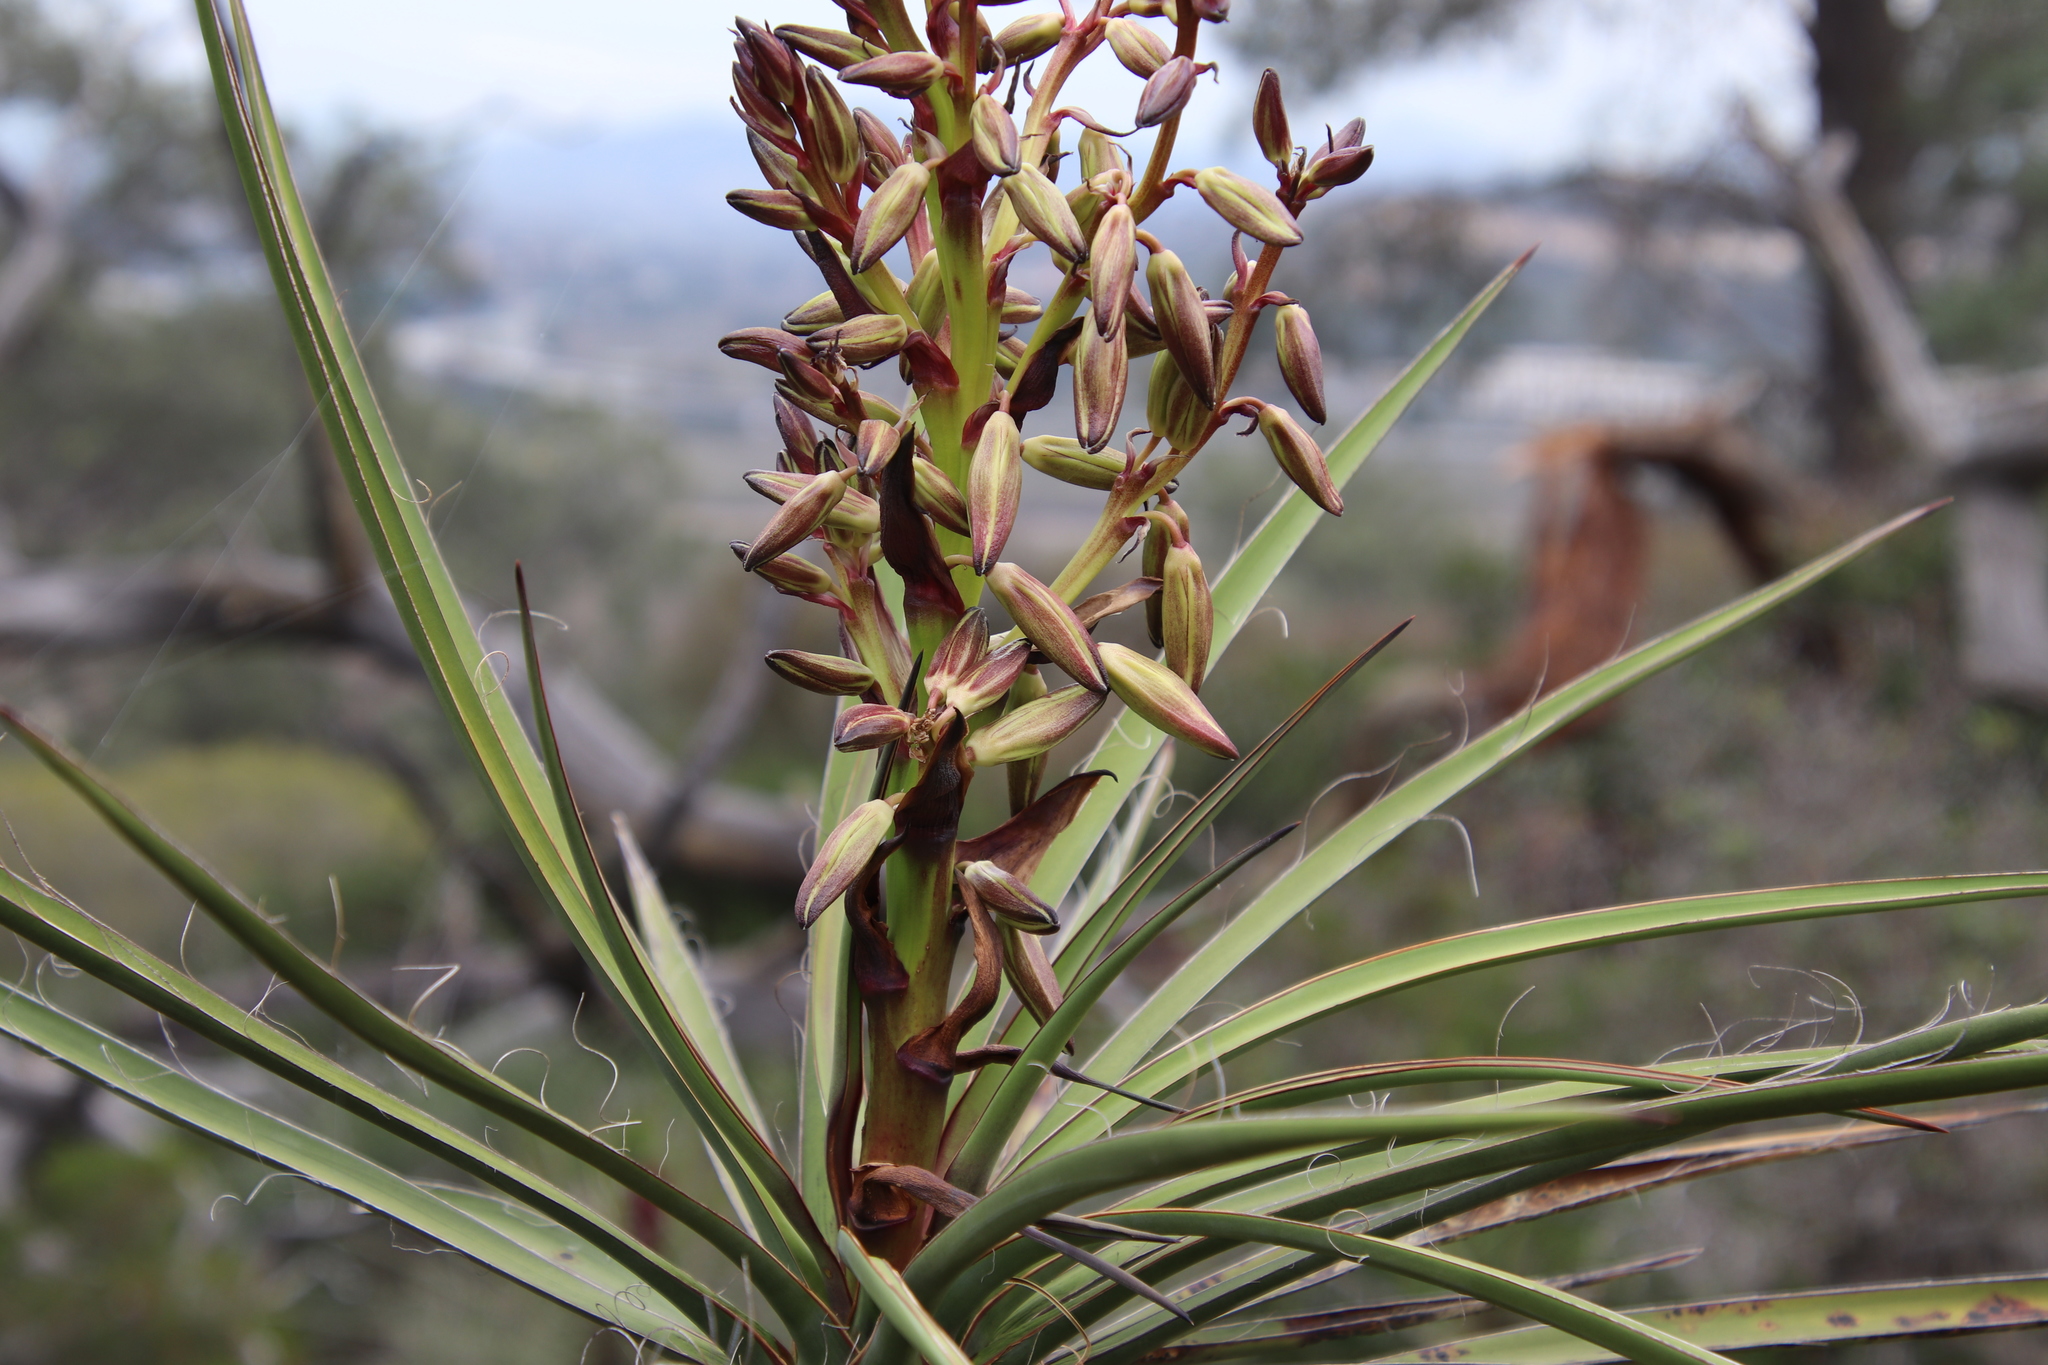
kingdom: Plantae
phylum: Tracheophyta
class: Liliopsida
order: Asparagales
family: Asparagaceae
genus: Yucca
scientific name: Yucca schidigera
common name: Mojave yucca
